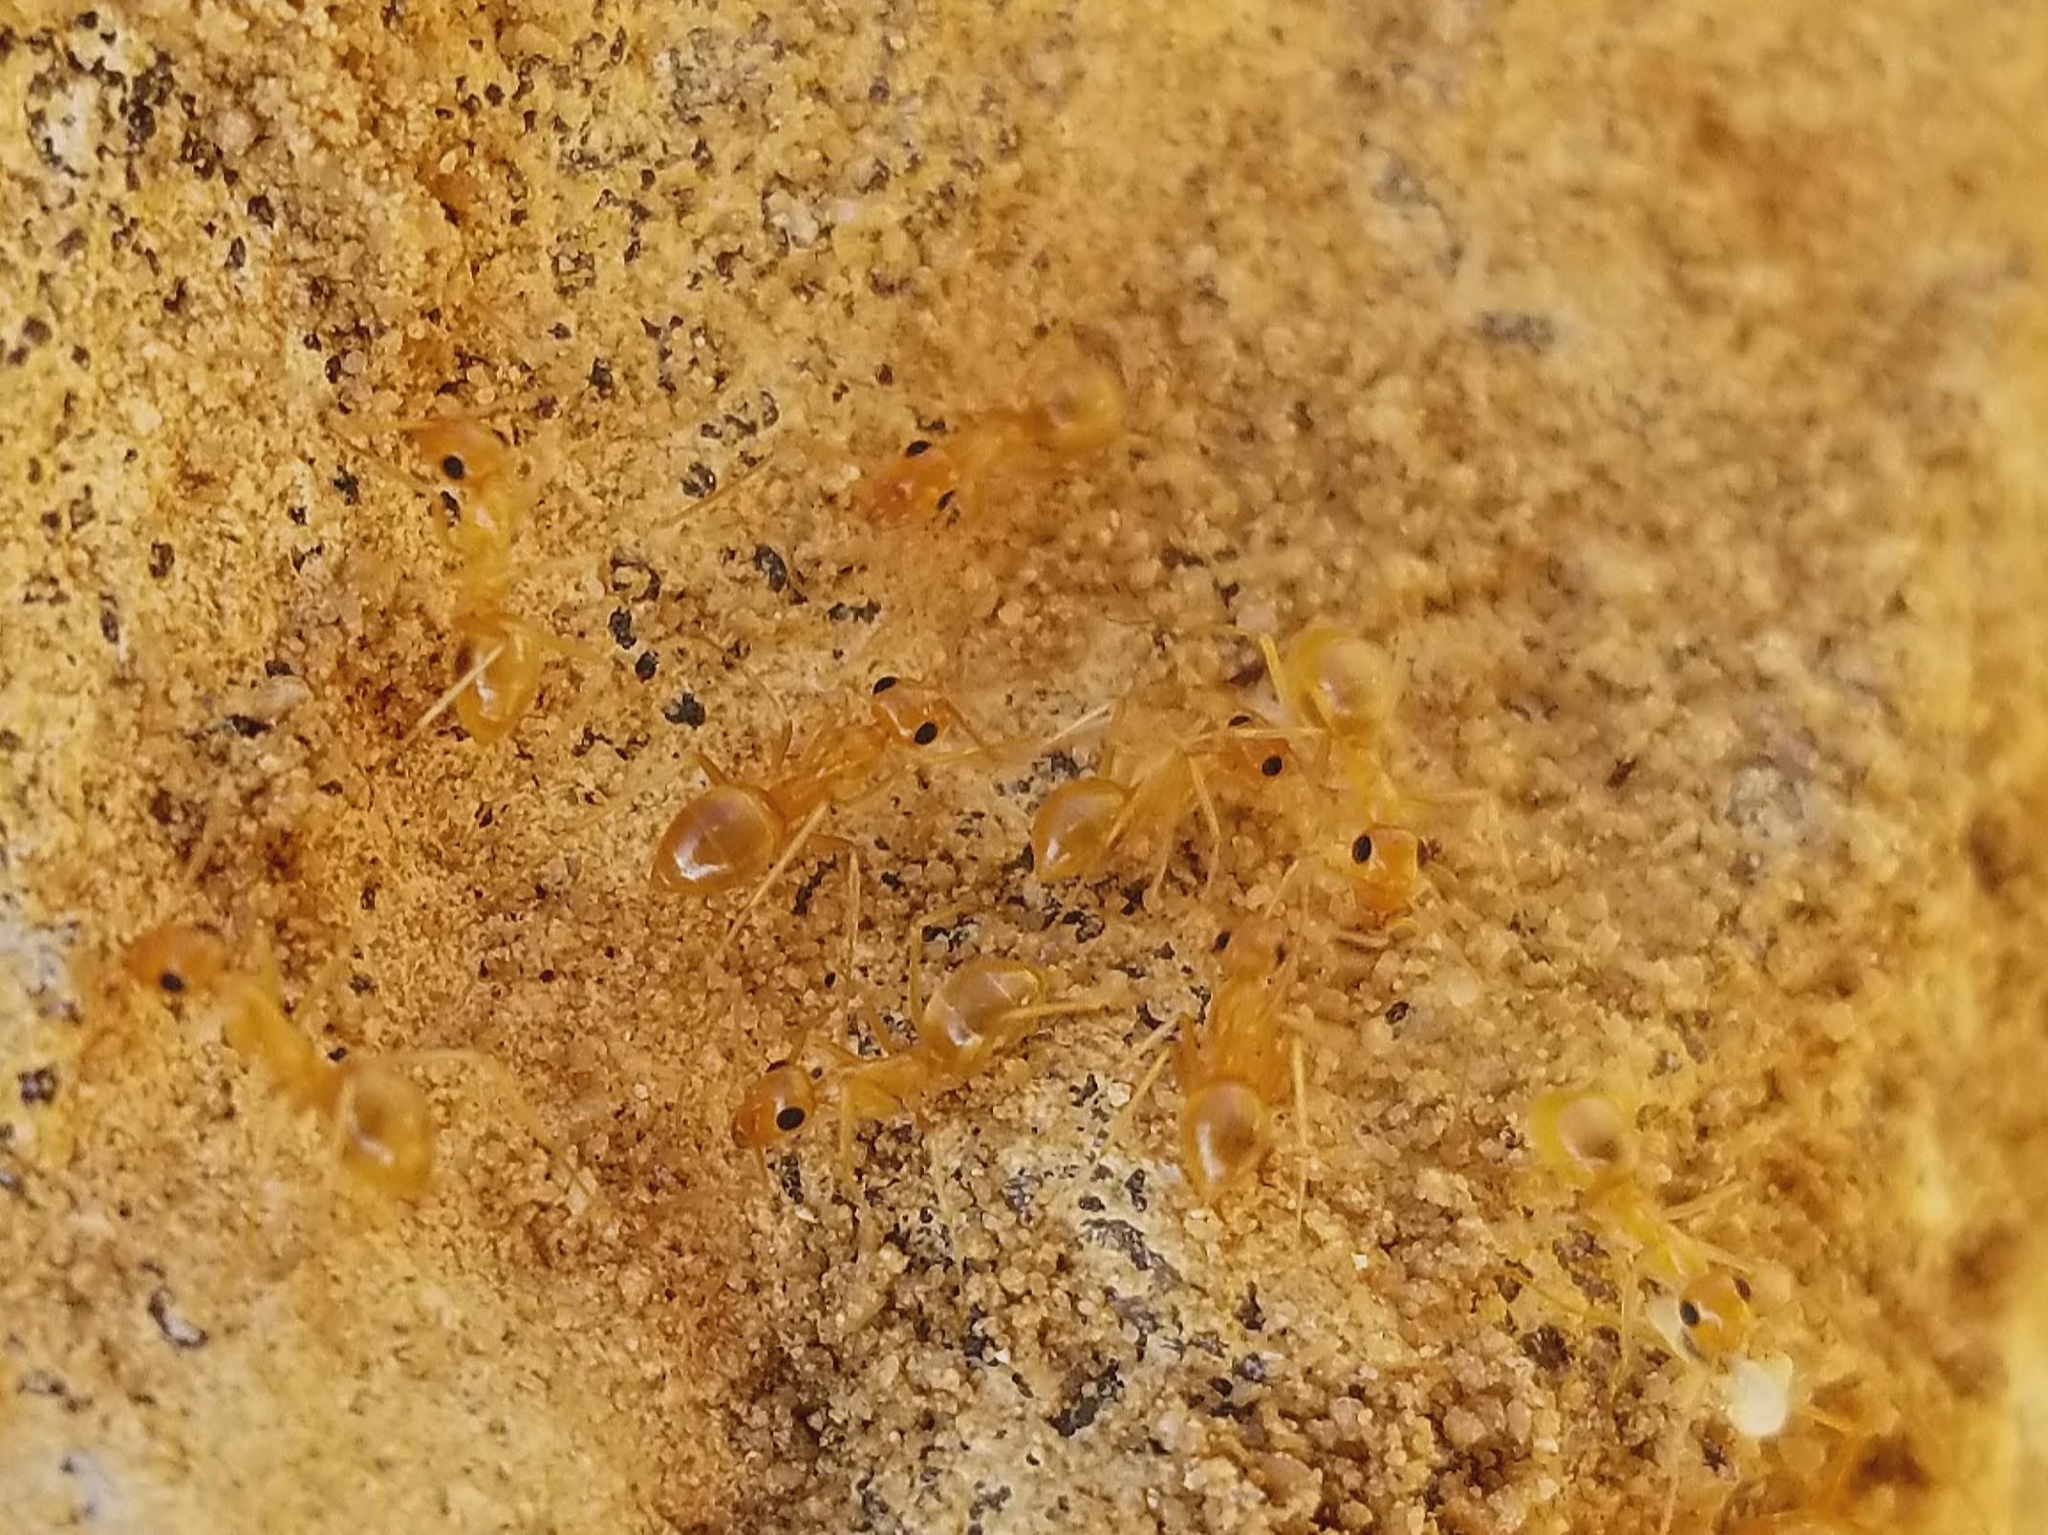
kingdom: Animalia
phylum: Arthropoda
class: Insecta
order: Hymenoptera
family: Formicidae
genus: Myrmecocystus
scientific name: Myrmecocystus testaceus
